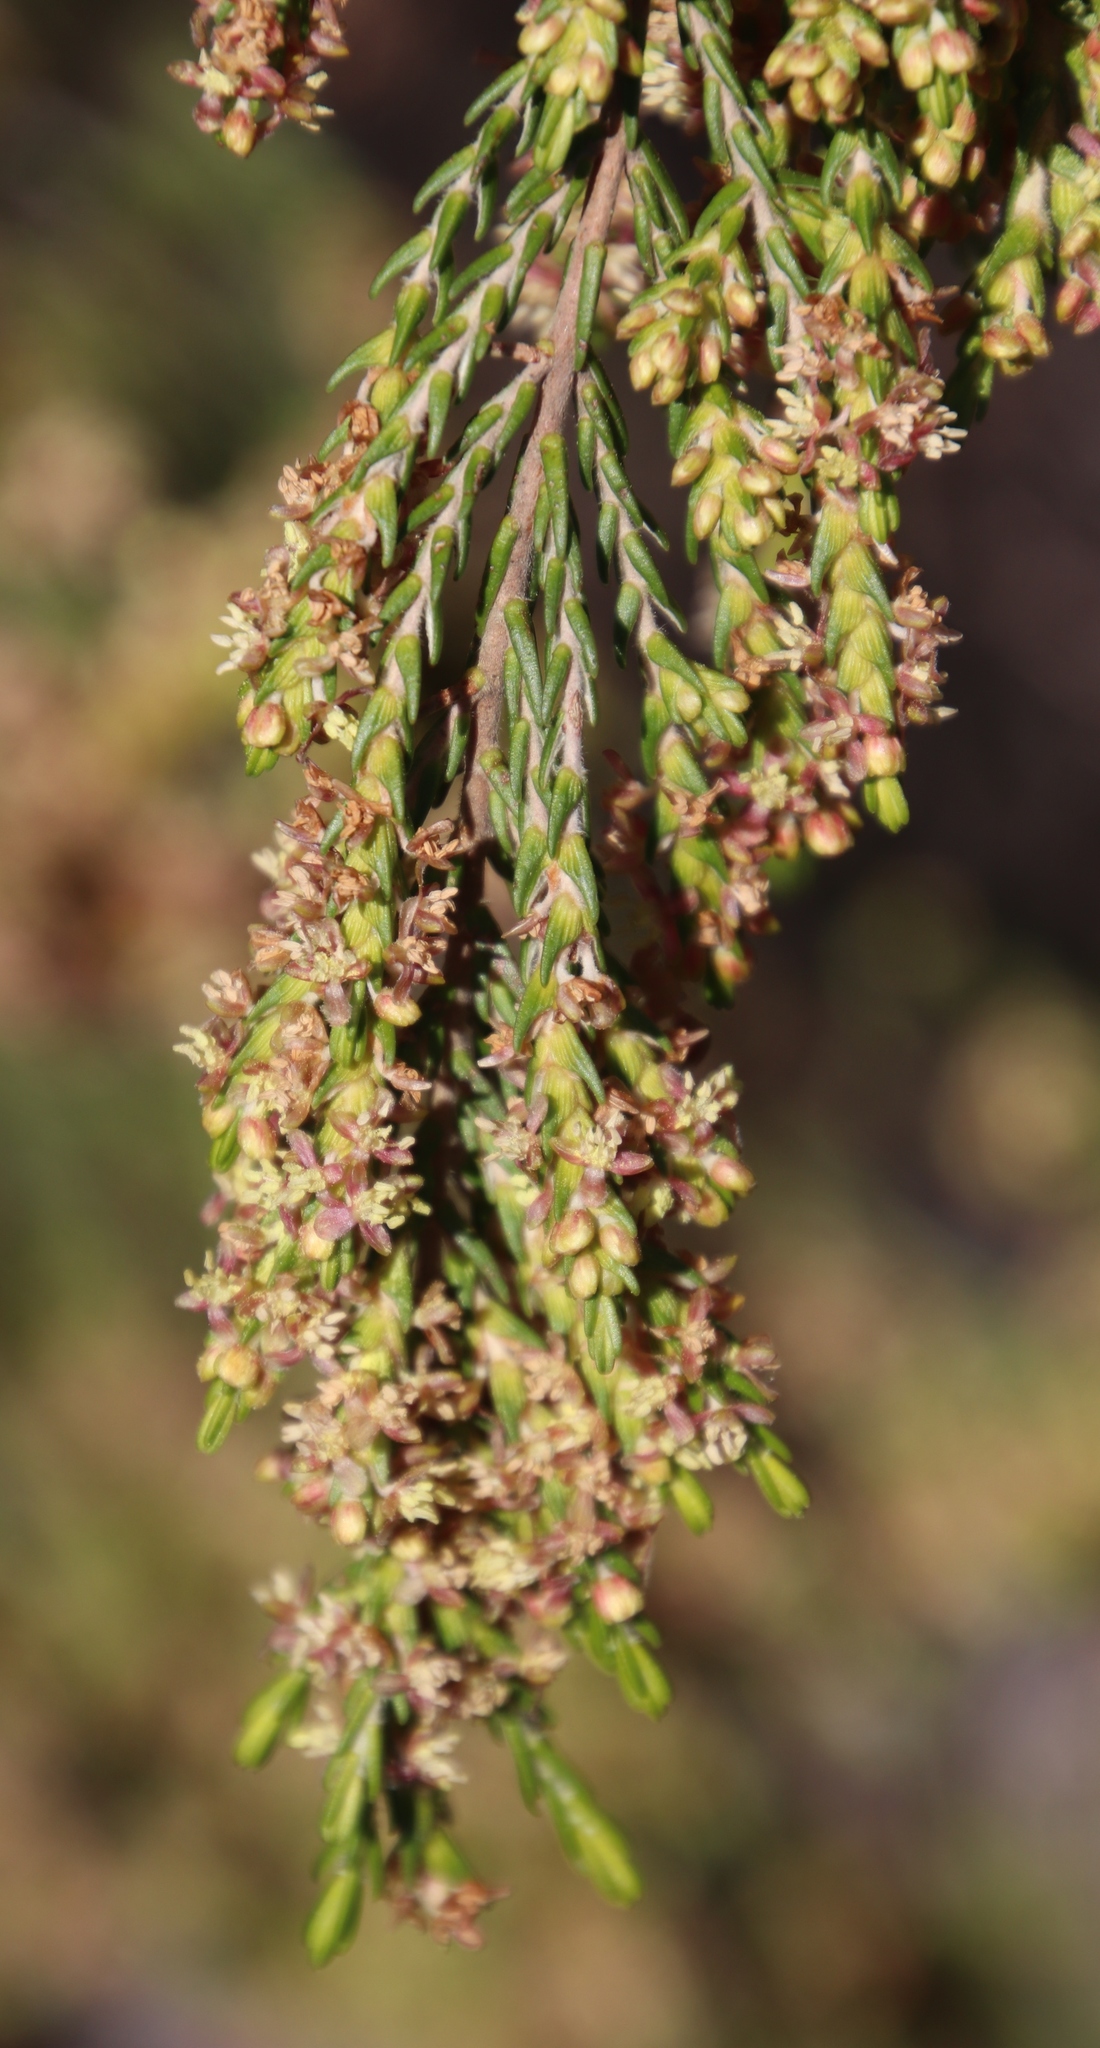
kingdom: Plantae
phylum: Tracheophyta
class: Magnoliopsida
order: Malvales
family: Thymelaeaceae
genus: Passerina
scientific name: Passerina corymbosa
